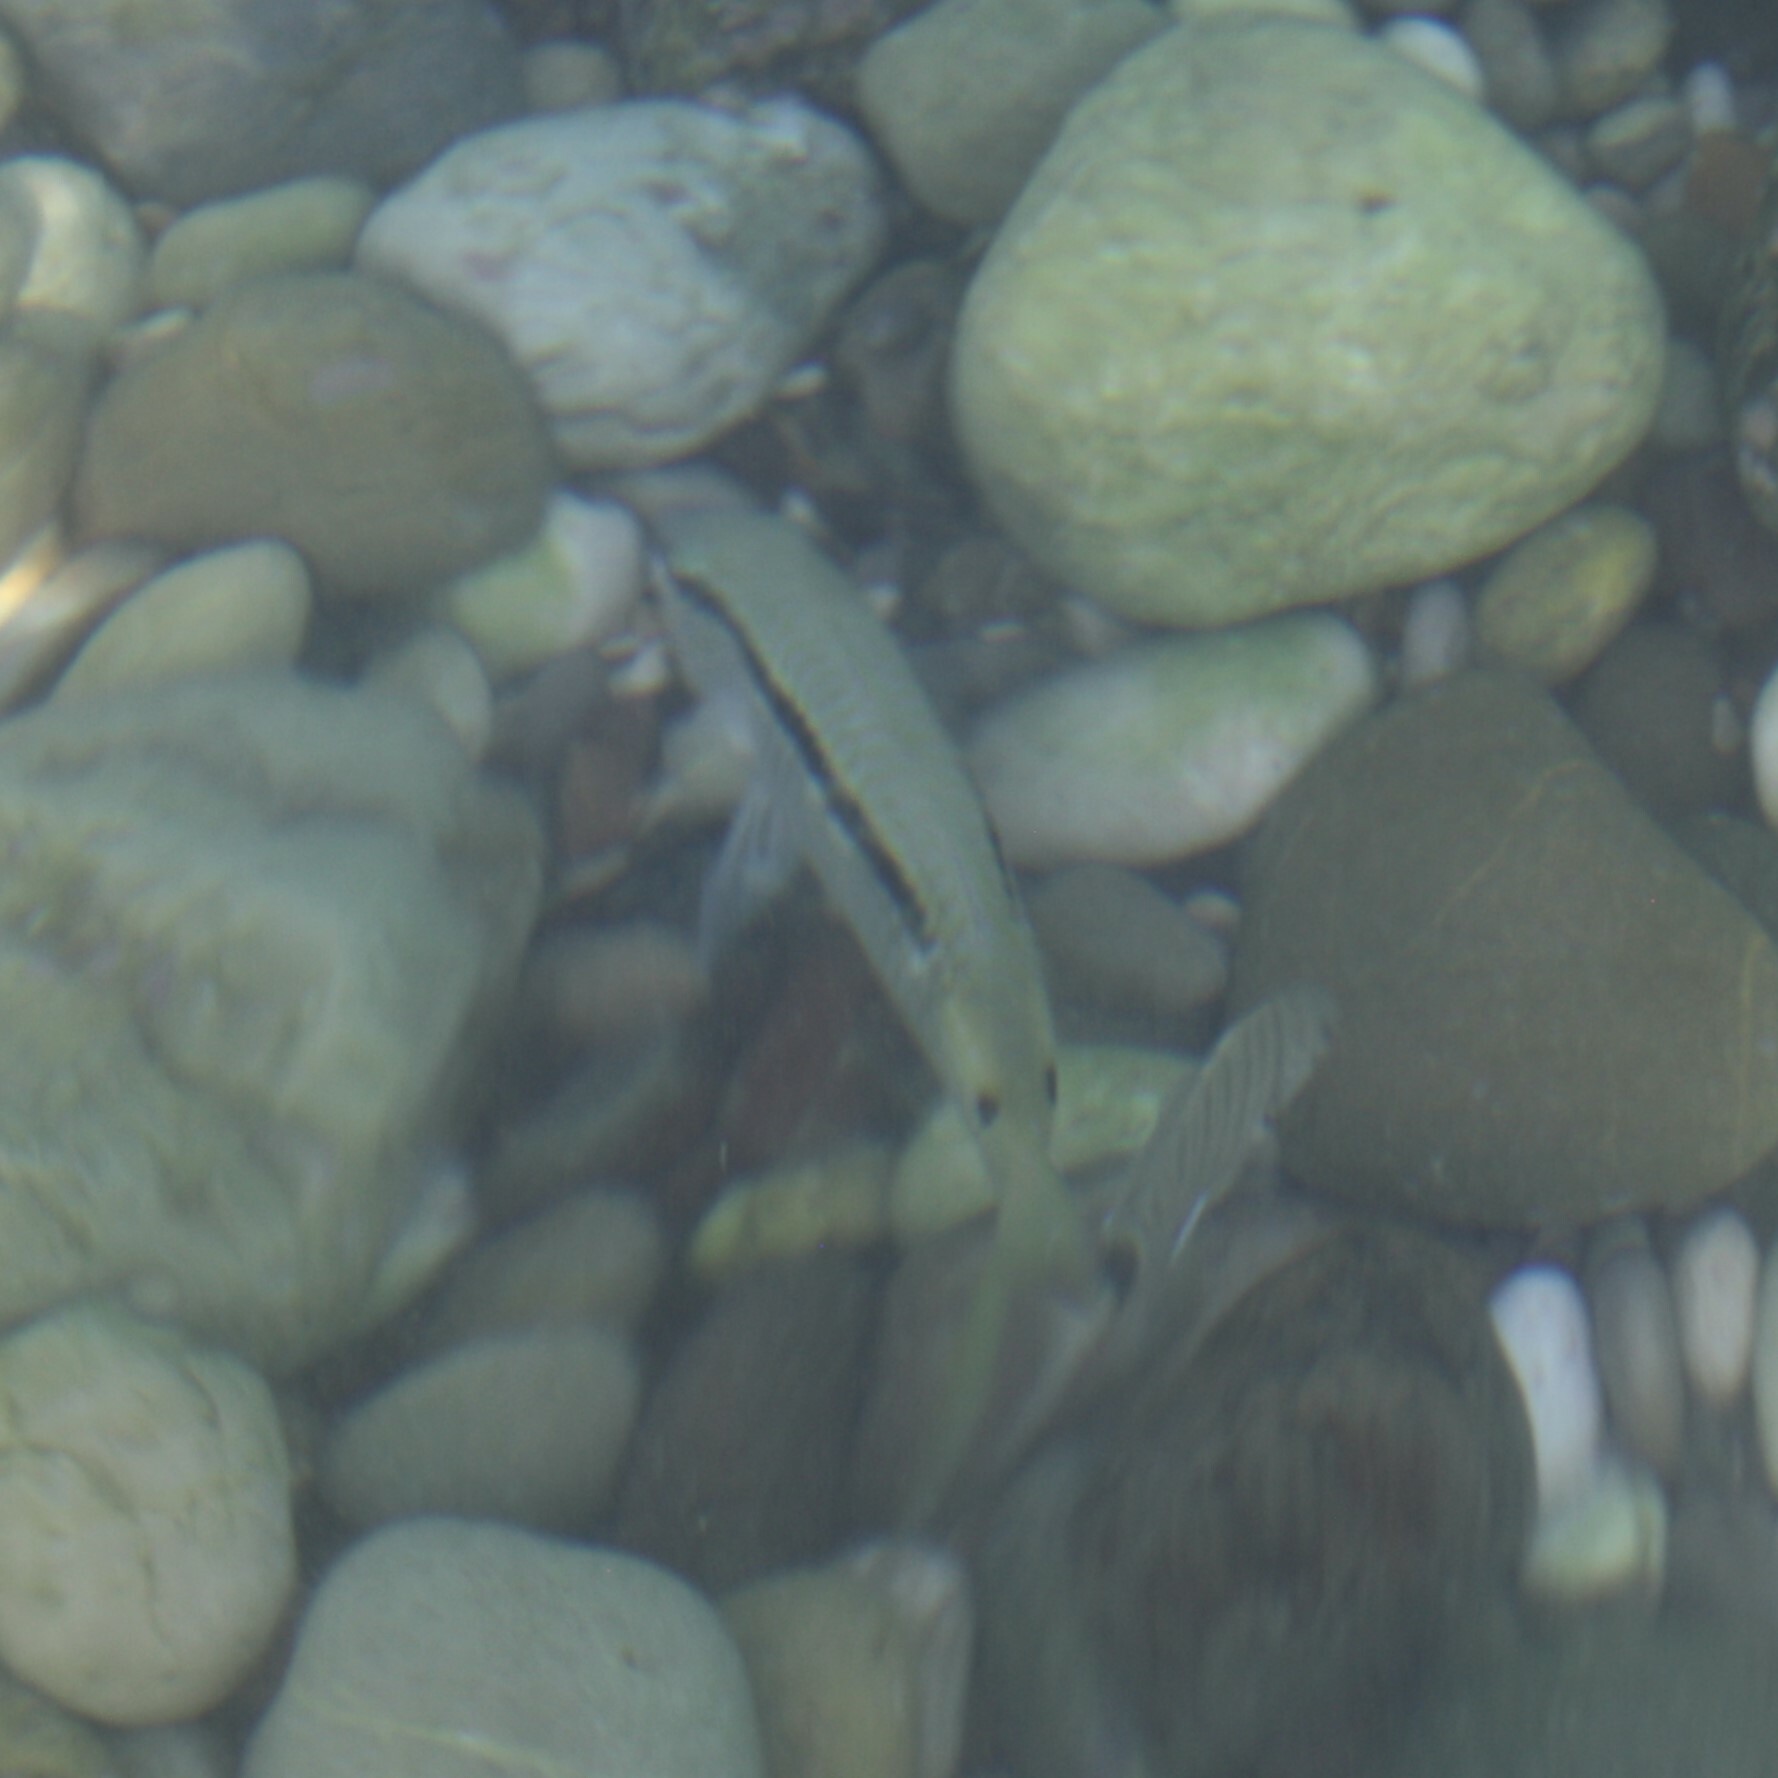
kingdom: Animalia
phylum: Chordata
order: Perciformes
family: Mullidae
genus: Parupeneus
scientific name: Parupeneus forsskali
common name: Red sea goatfish
